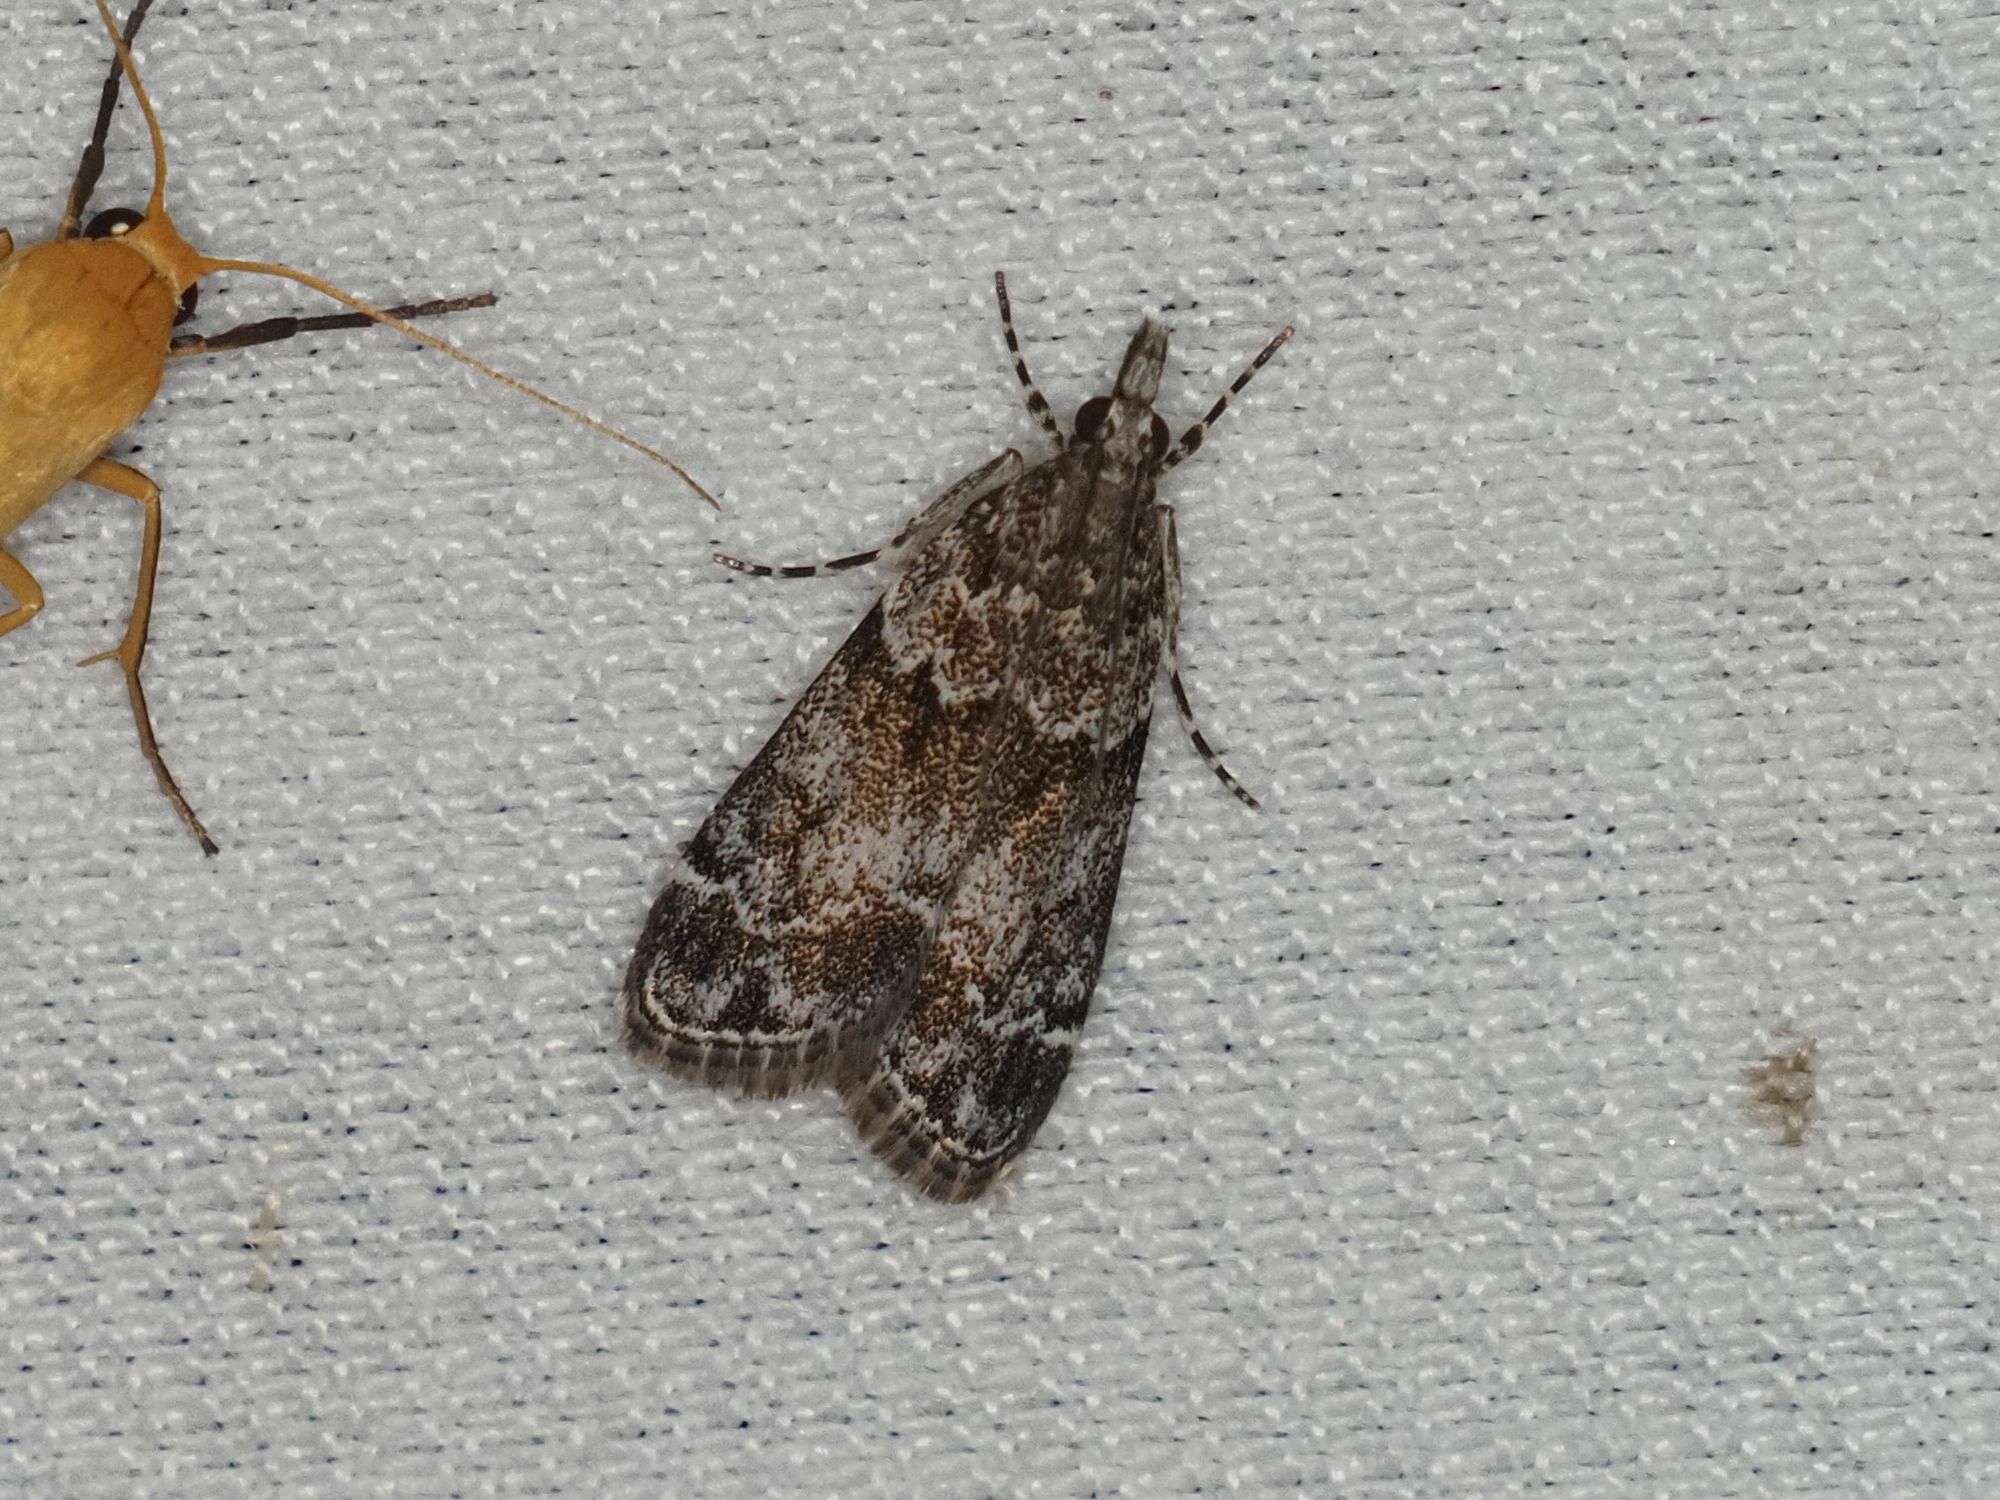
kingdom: Animalia
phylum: Arthropoda
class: Insecta
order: Lepidoptera
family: Crambidae
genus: Eudonia
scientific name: Eudonia mercurella
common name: Small grey
